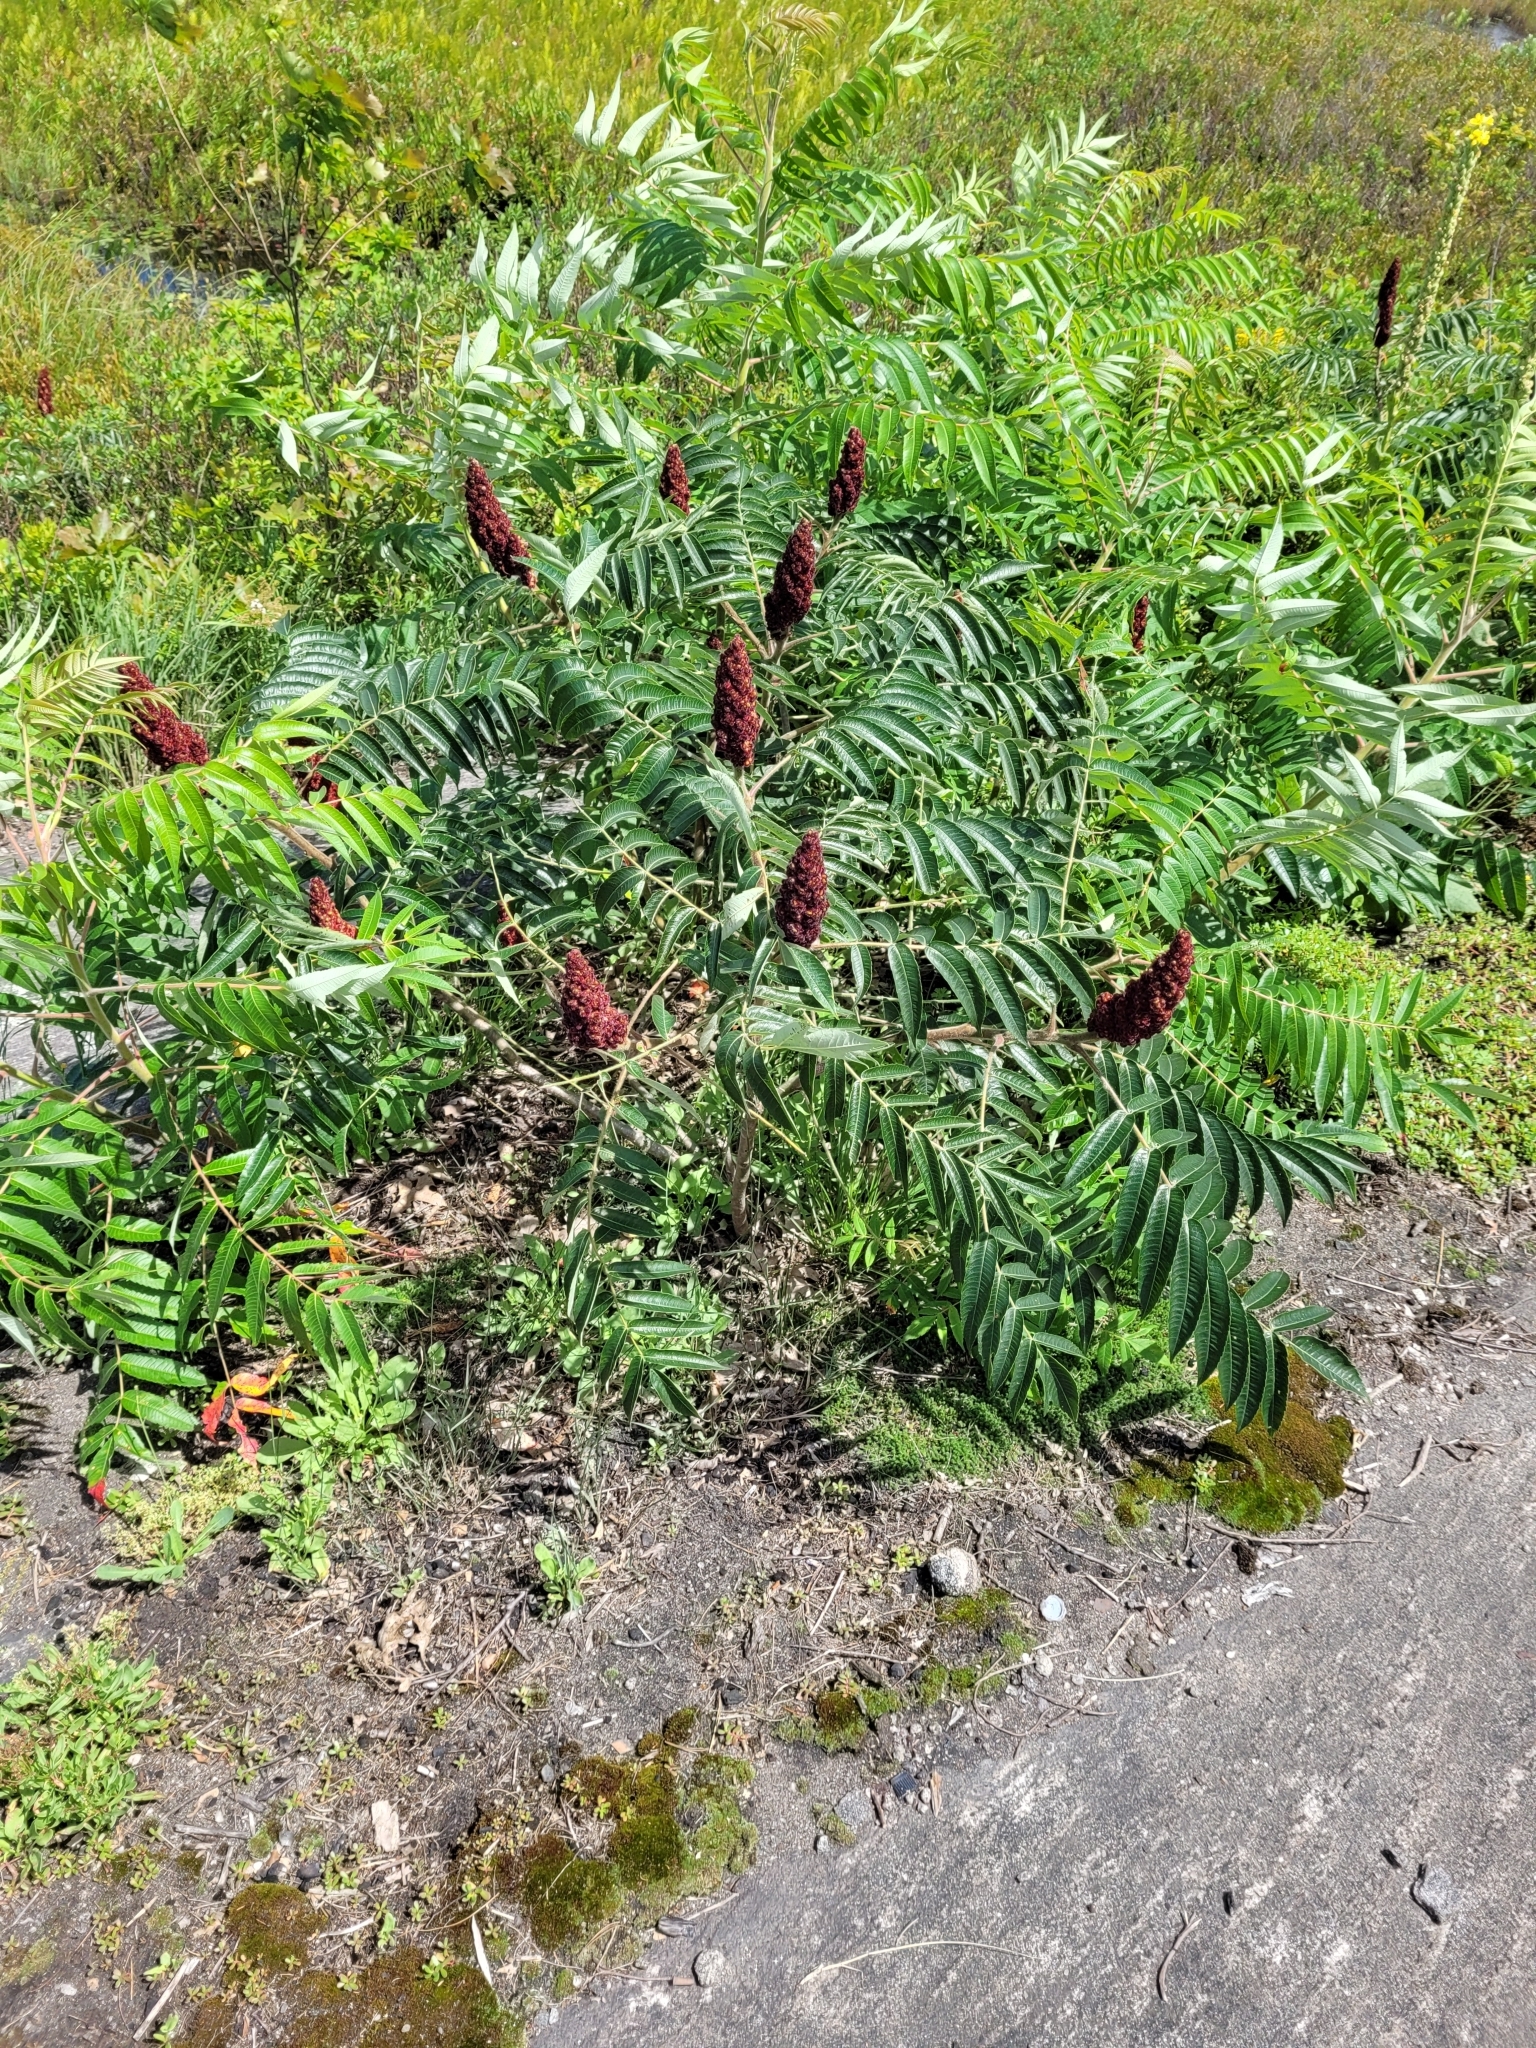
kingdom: Plantae
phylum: Tracheophyta
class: Magnoliopsida
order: Sapindales
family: Anacardiaceae
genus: Rhus
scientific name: Rhus typhina
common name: Staghorn sumac
